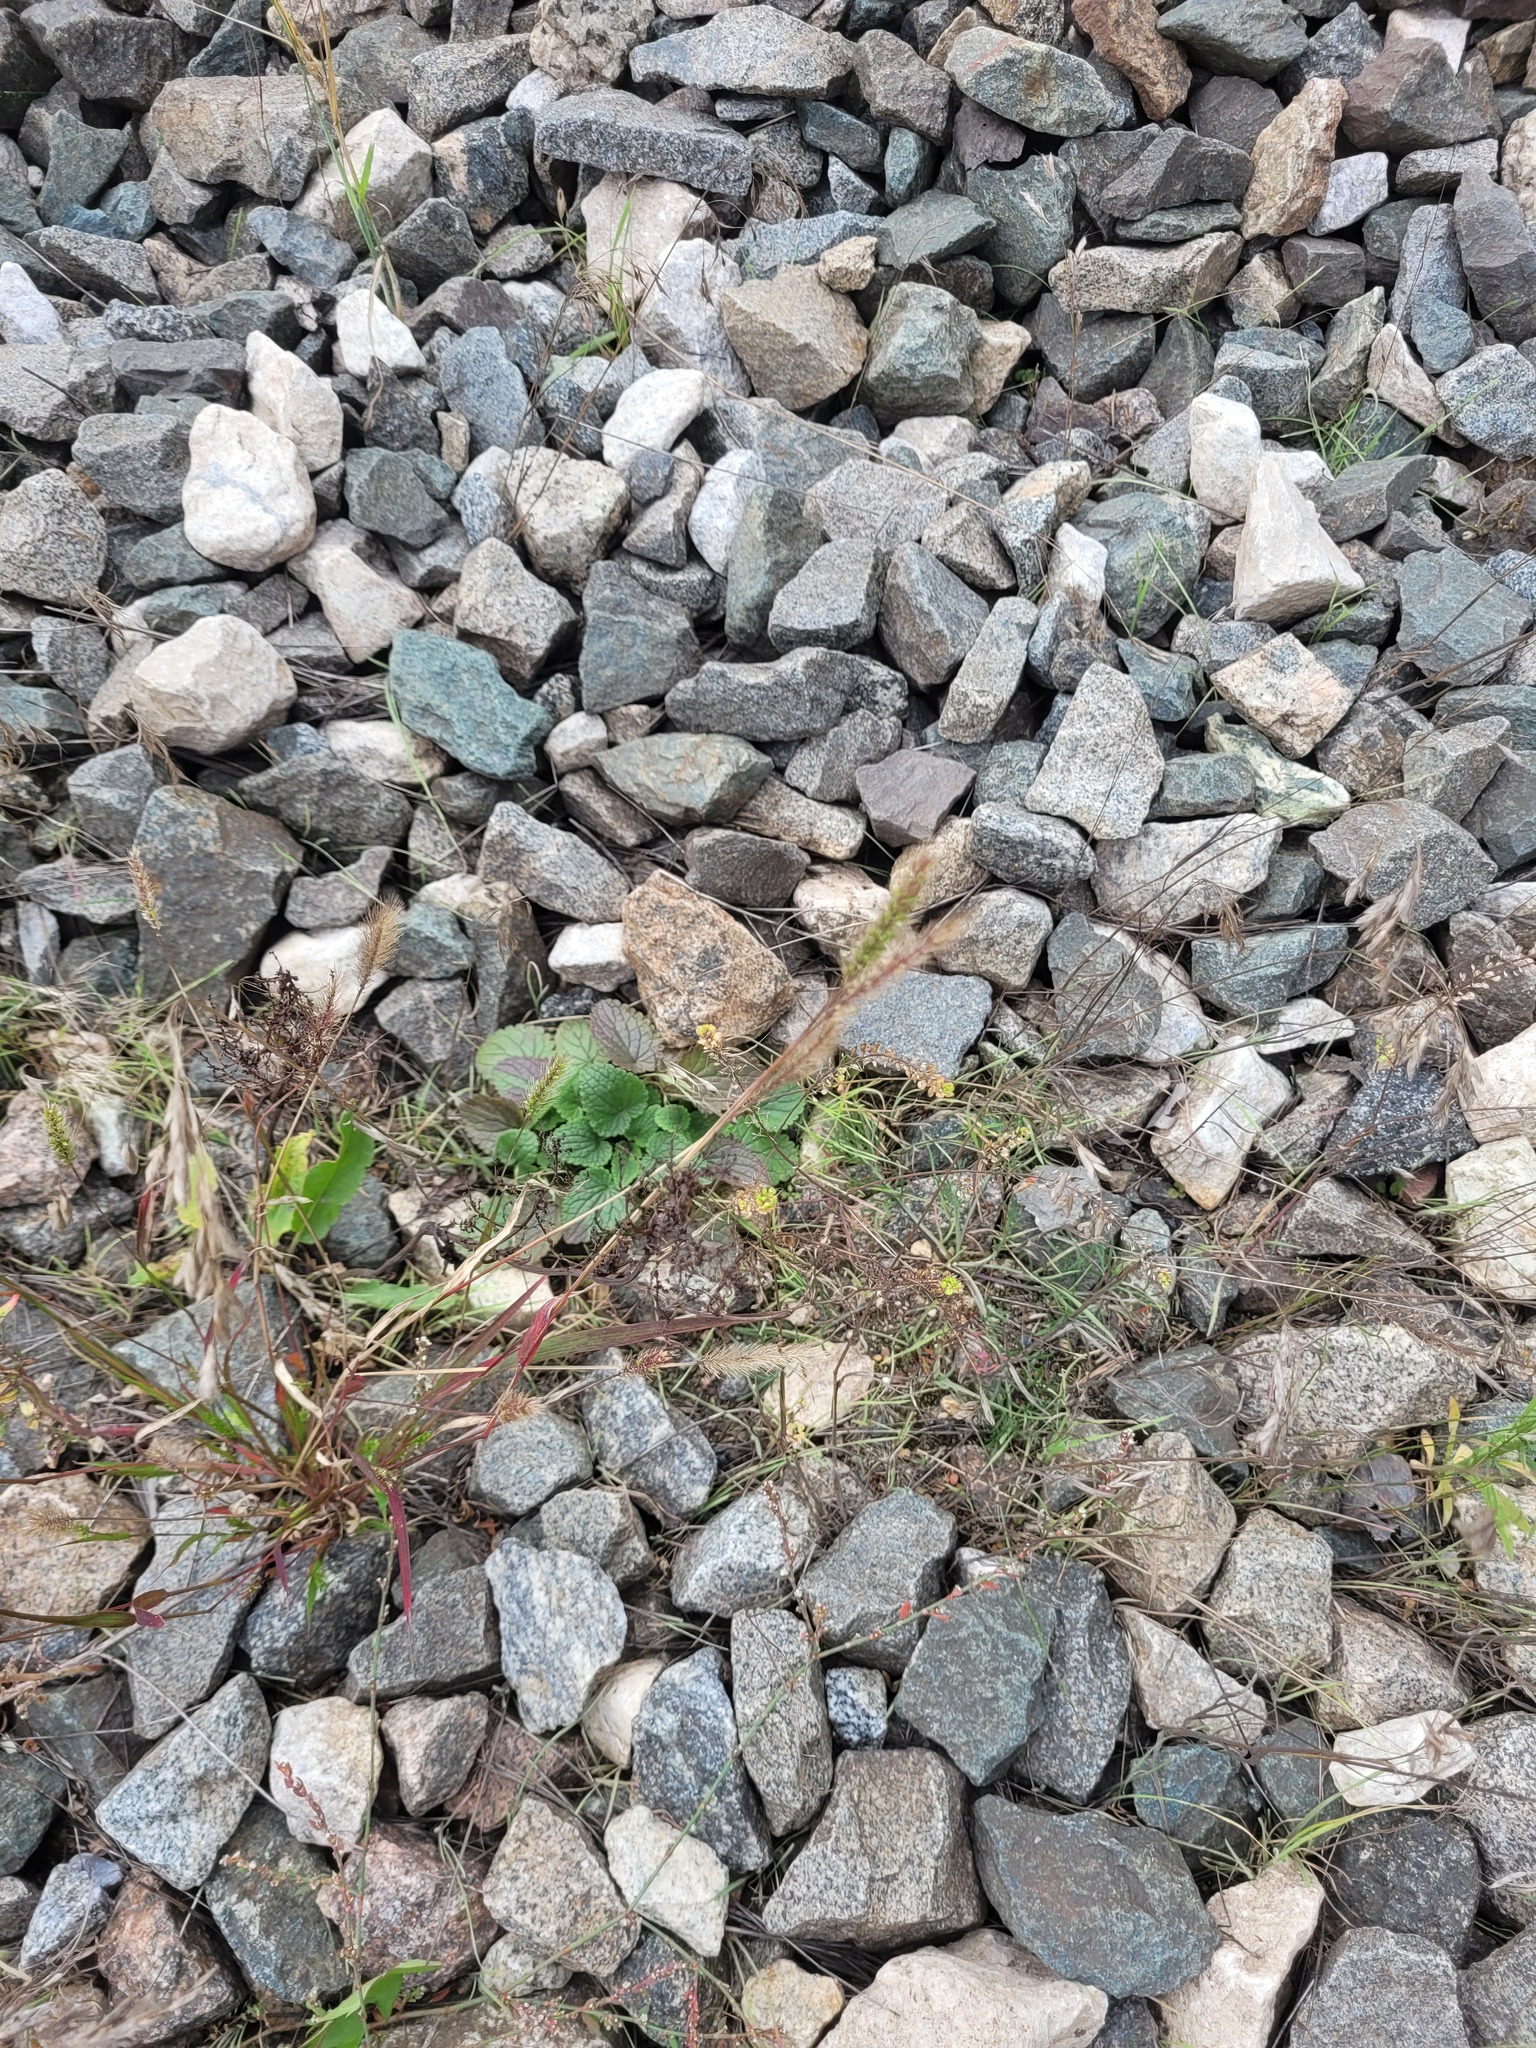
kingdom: Plantae
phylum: Tracheophyta
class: Liliopsida
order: Poales
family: Poaceae
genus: Setaria
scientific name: Setaria viridis
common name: Green bristlegrass
